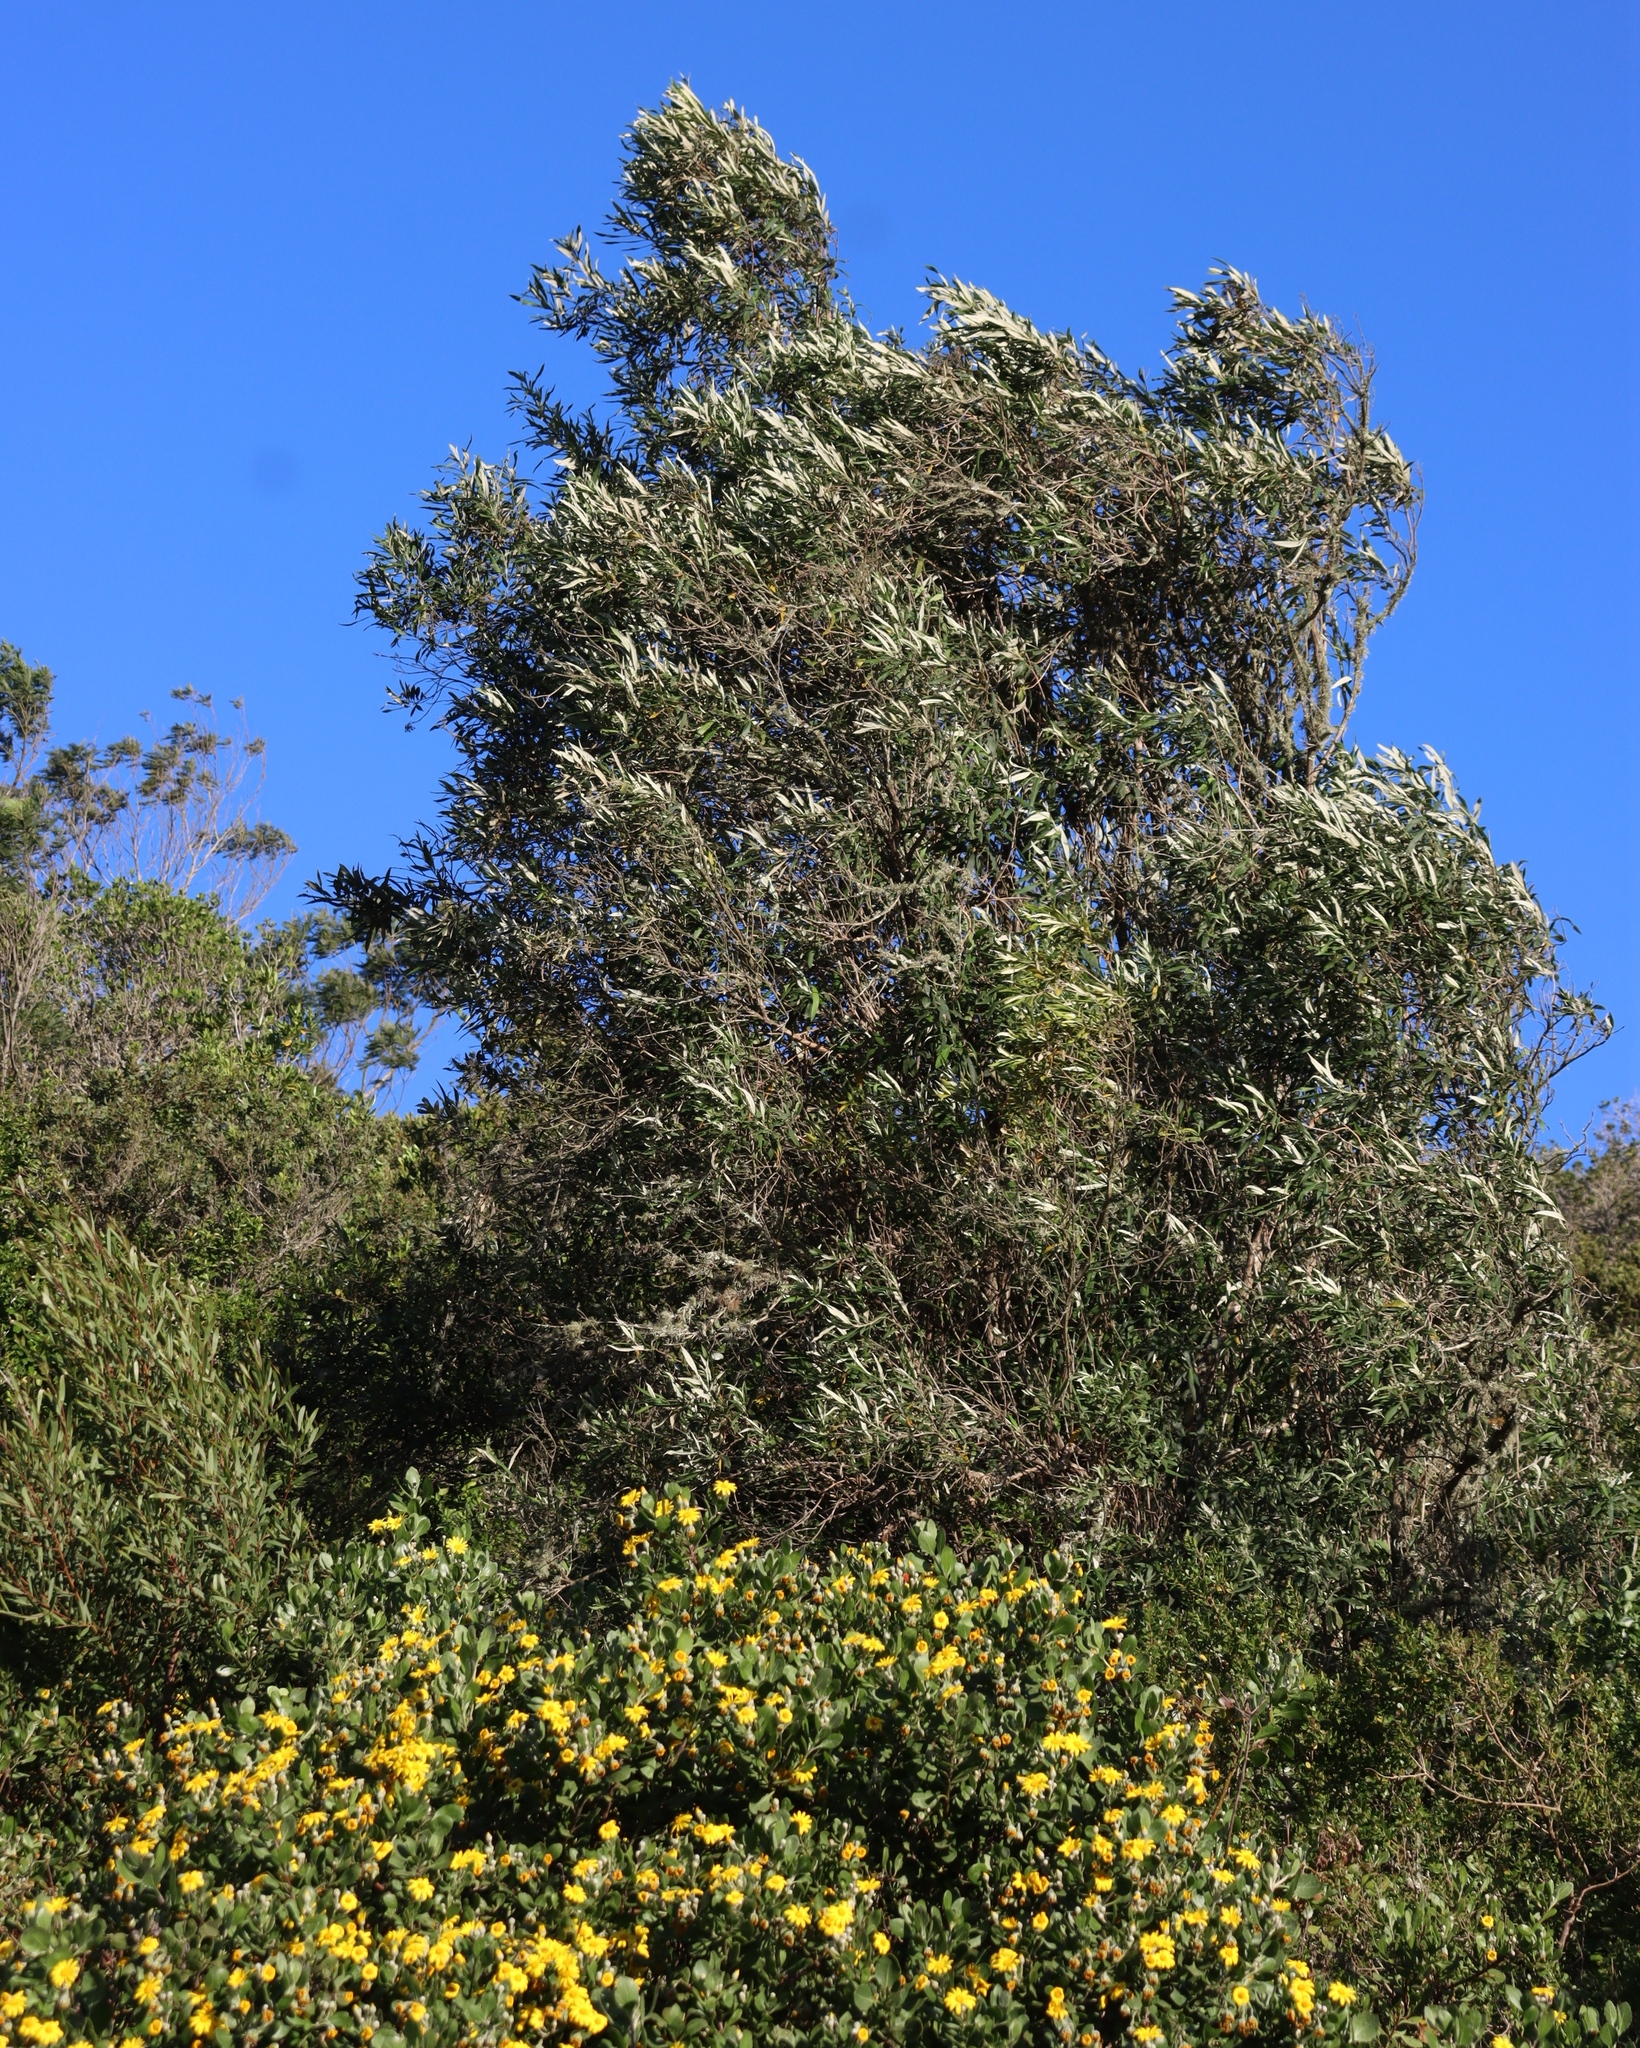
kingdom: Plantae
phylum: Tracheophyta
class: Magnoliopsida
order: Lamiales
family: Scrophulariaceae
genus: Buddleja
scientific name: Buddleja saligna
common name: False olive
